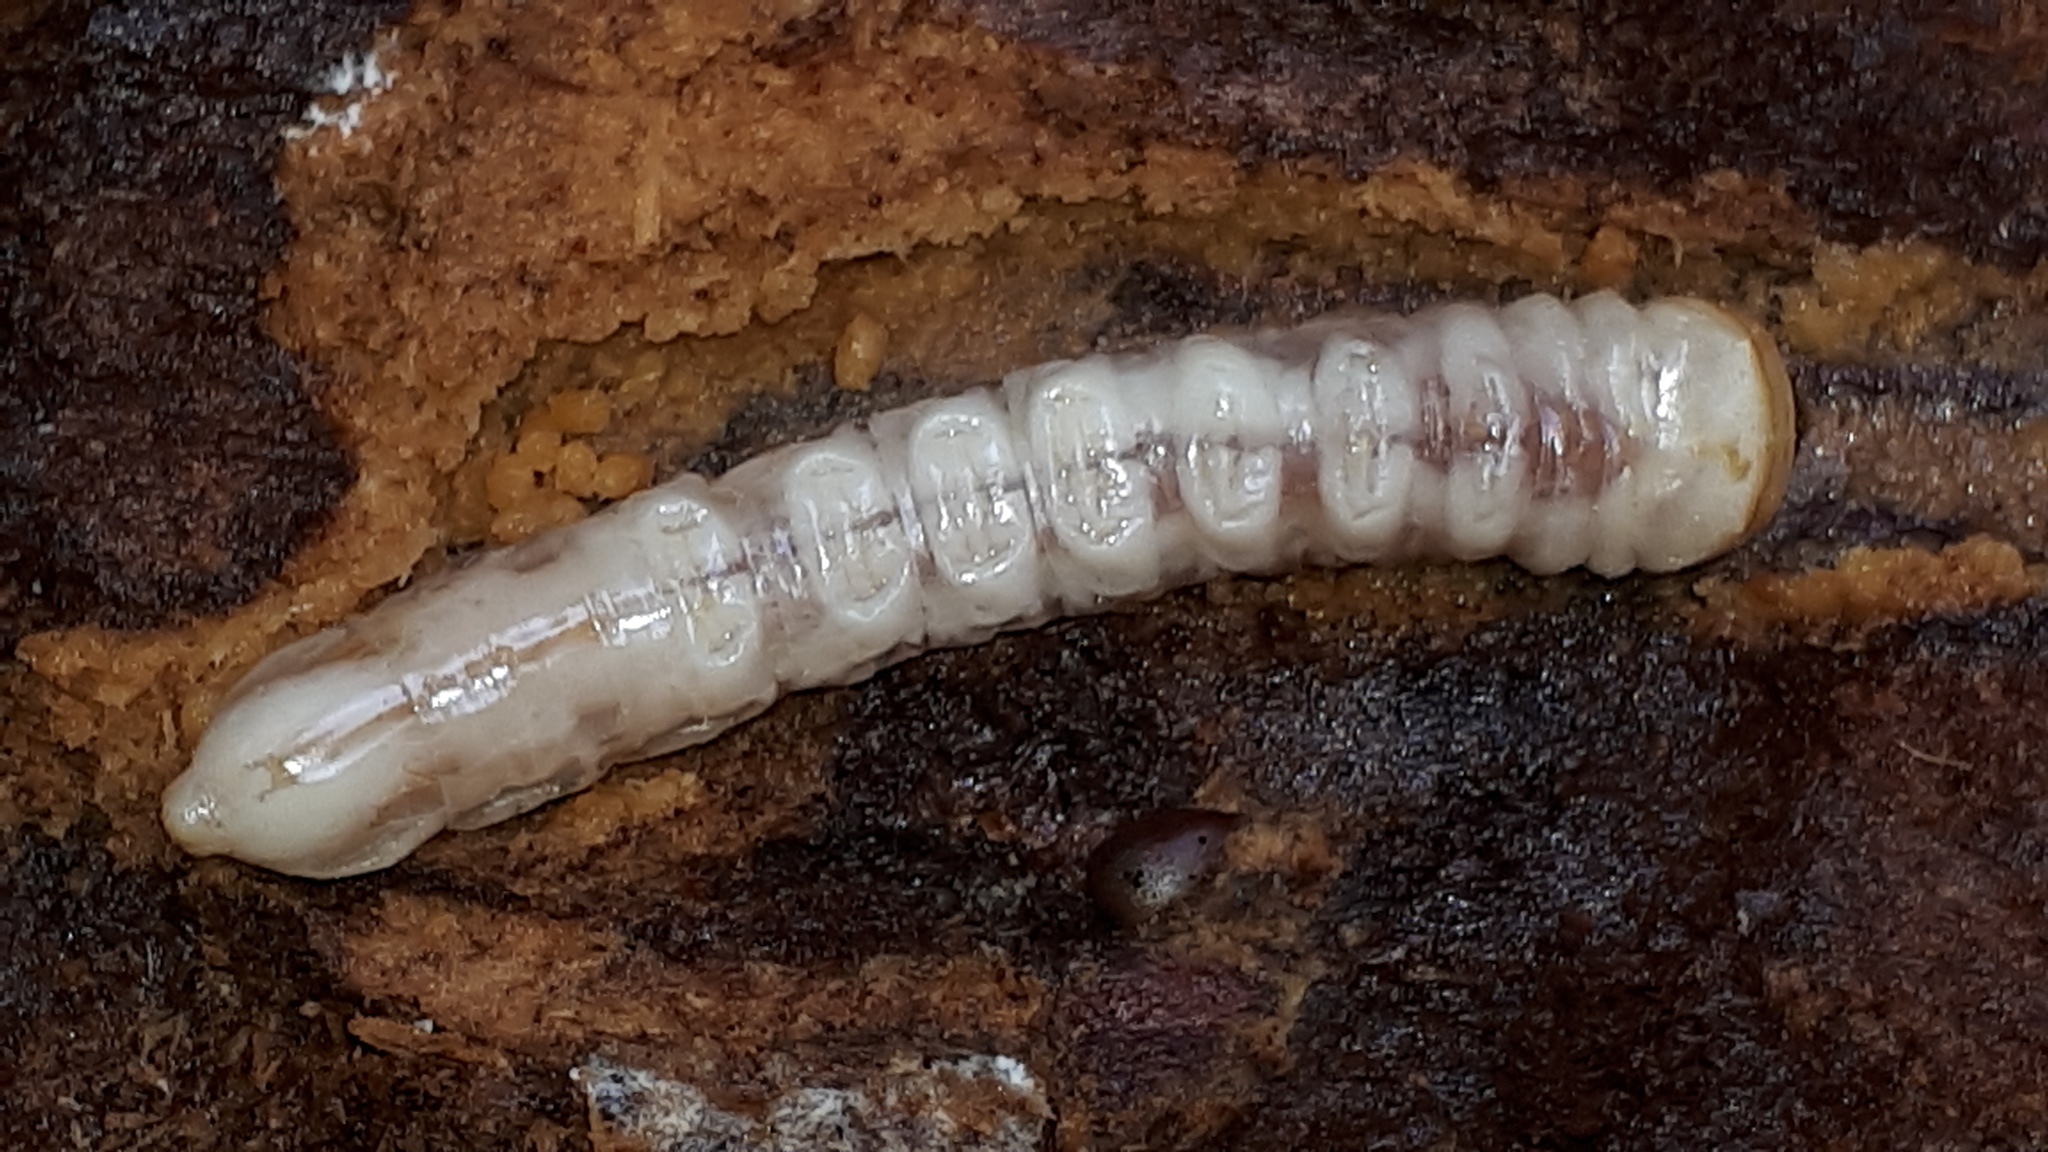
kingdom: Animalia
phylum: Arthropoda
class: Insecta
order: Coleoptera
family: Cerambycidae
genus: Prionus
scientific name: Prionus coriarius
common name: Tanner beetle
